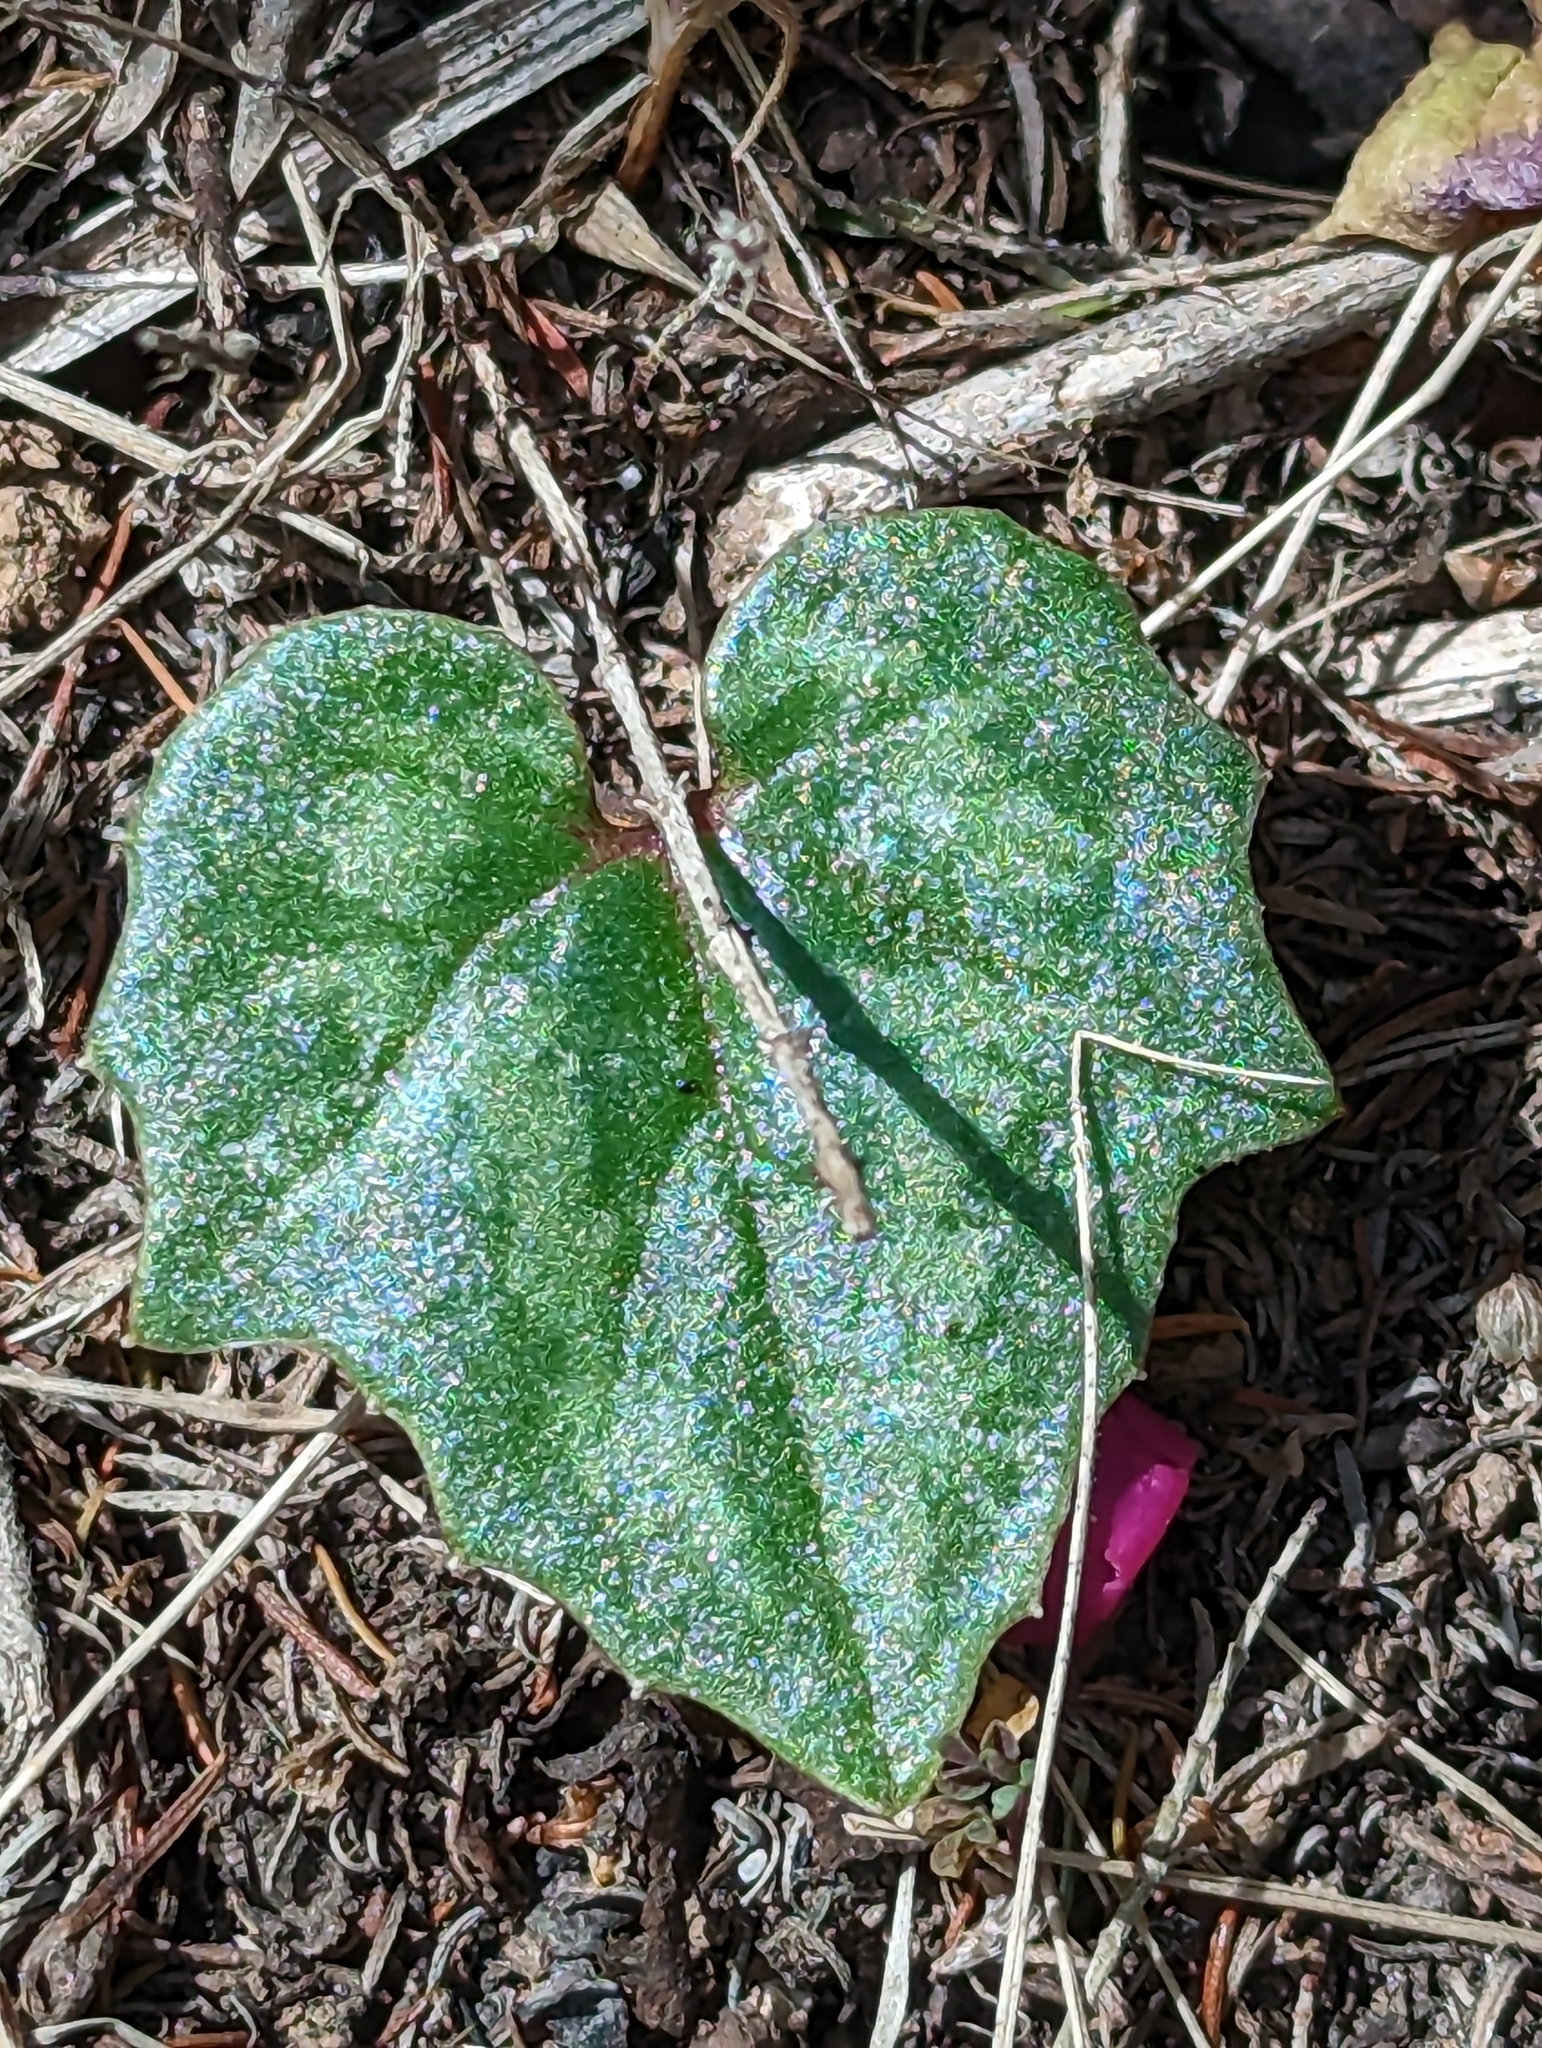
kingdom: Plantae
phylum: Tracheophyta
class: Magnoliopsida
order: Ericales
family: Primulaceae
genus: Cyclamen
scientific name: Cyclamen repandum
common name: Spring sowbread
